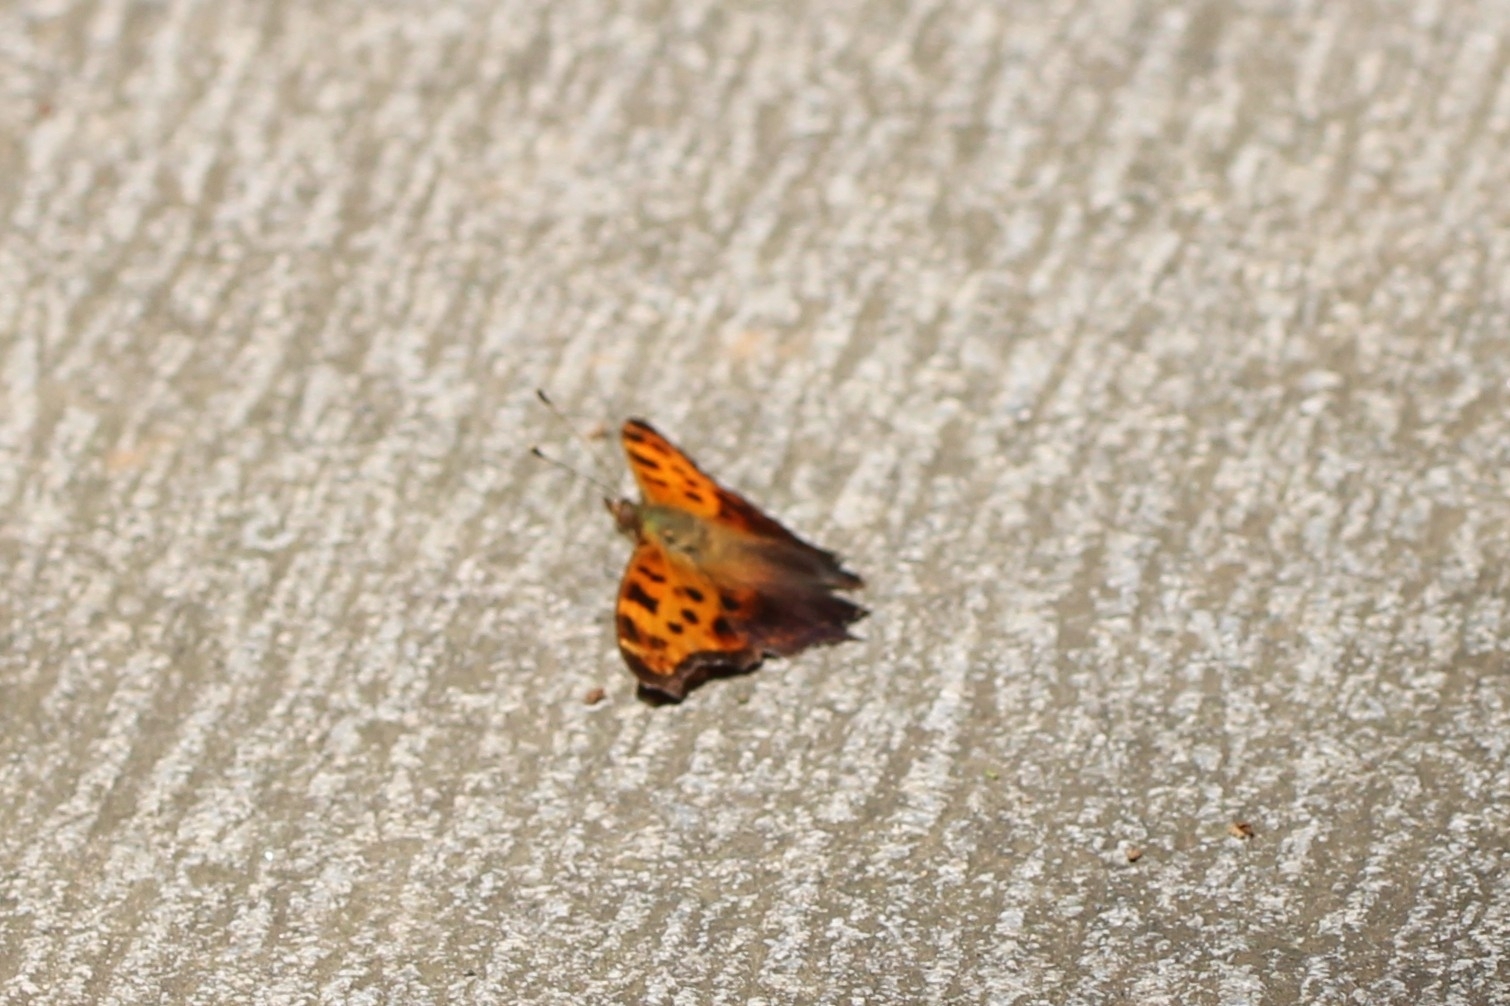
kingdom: Animalia
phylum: Arthropoda
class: Insecta
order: Lepidoptera
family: Nymphalidae
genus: Polygonia
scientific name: Polygonia comma
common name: Eastern comma
